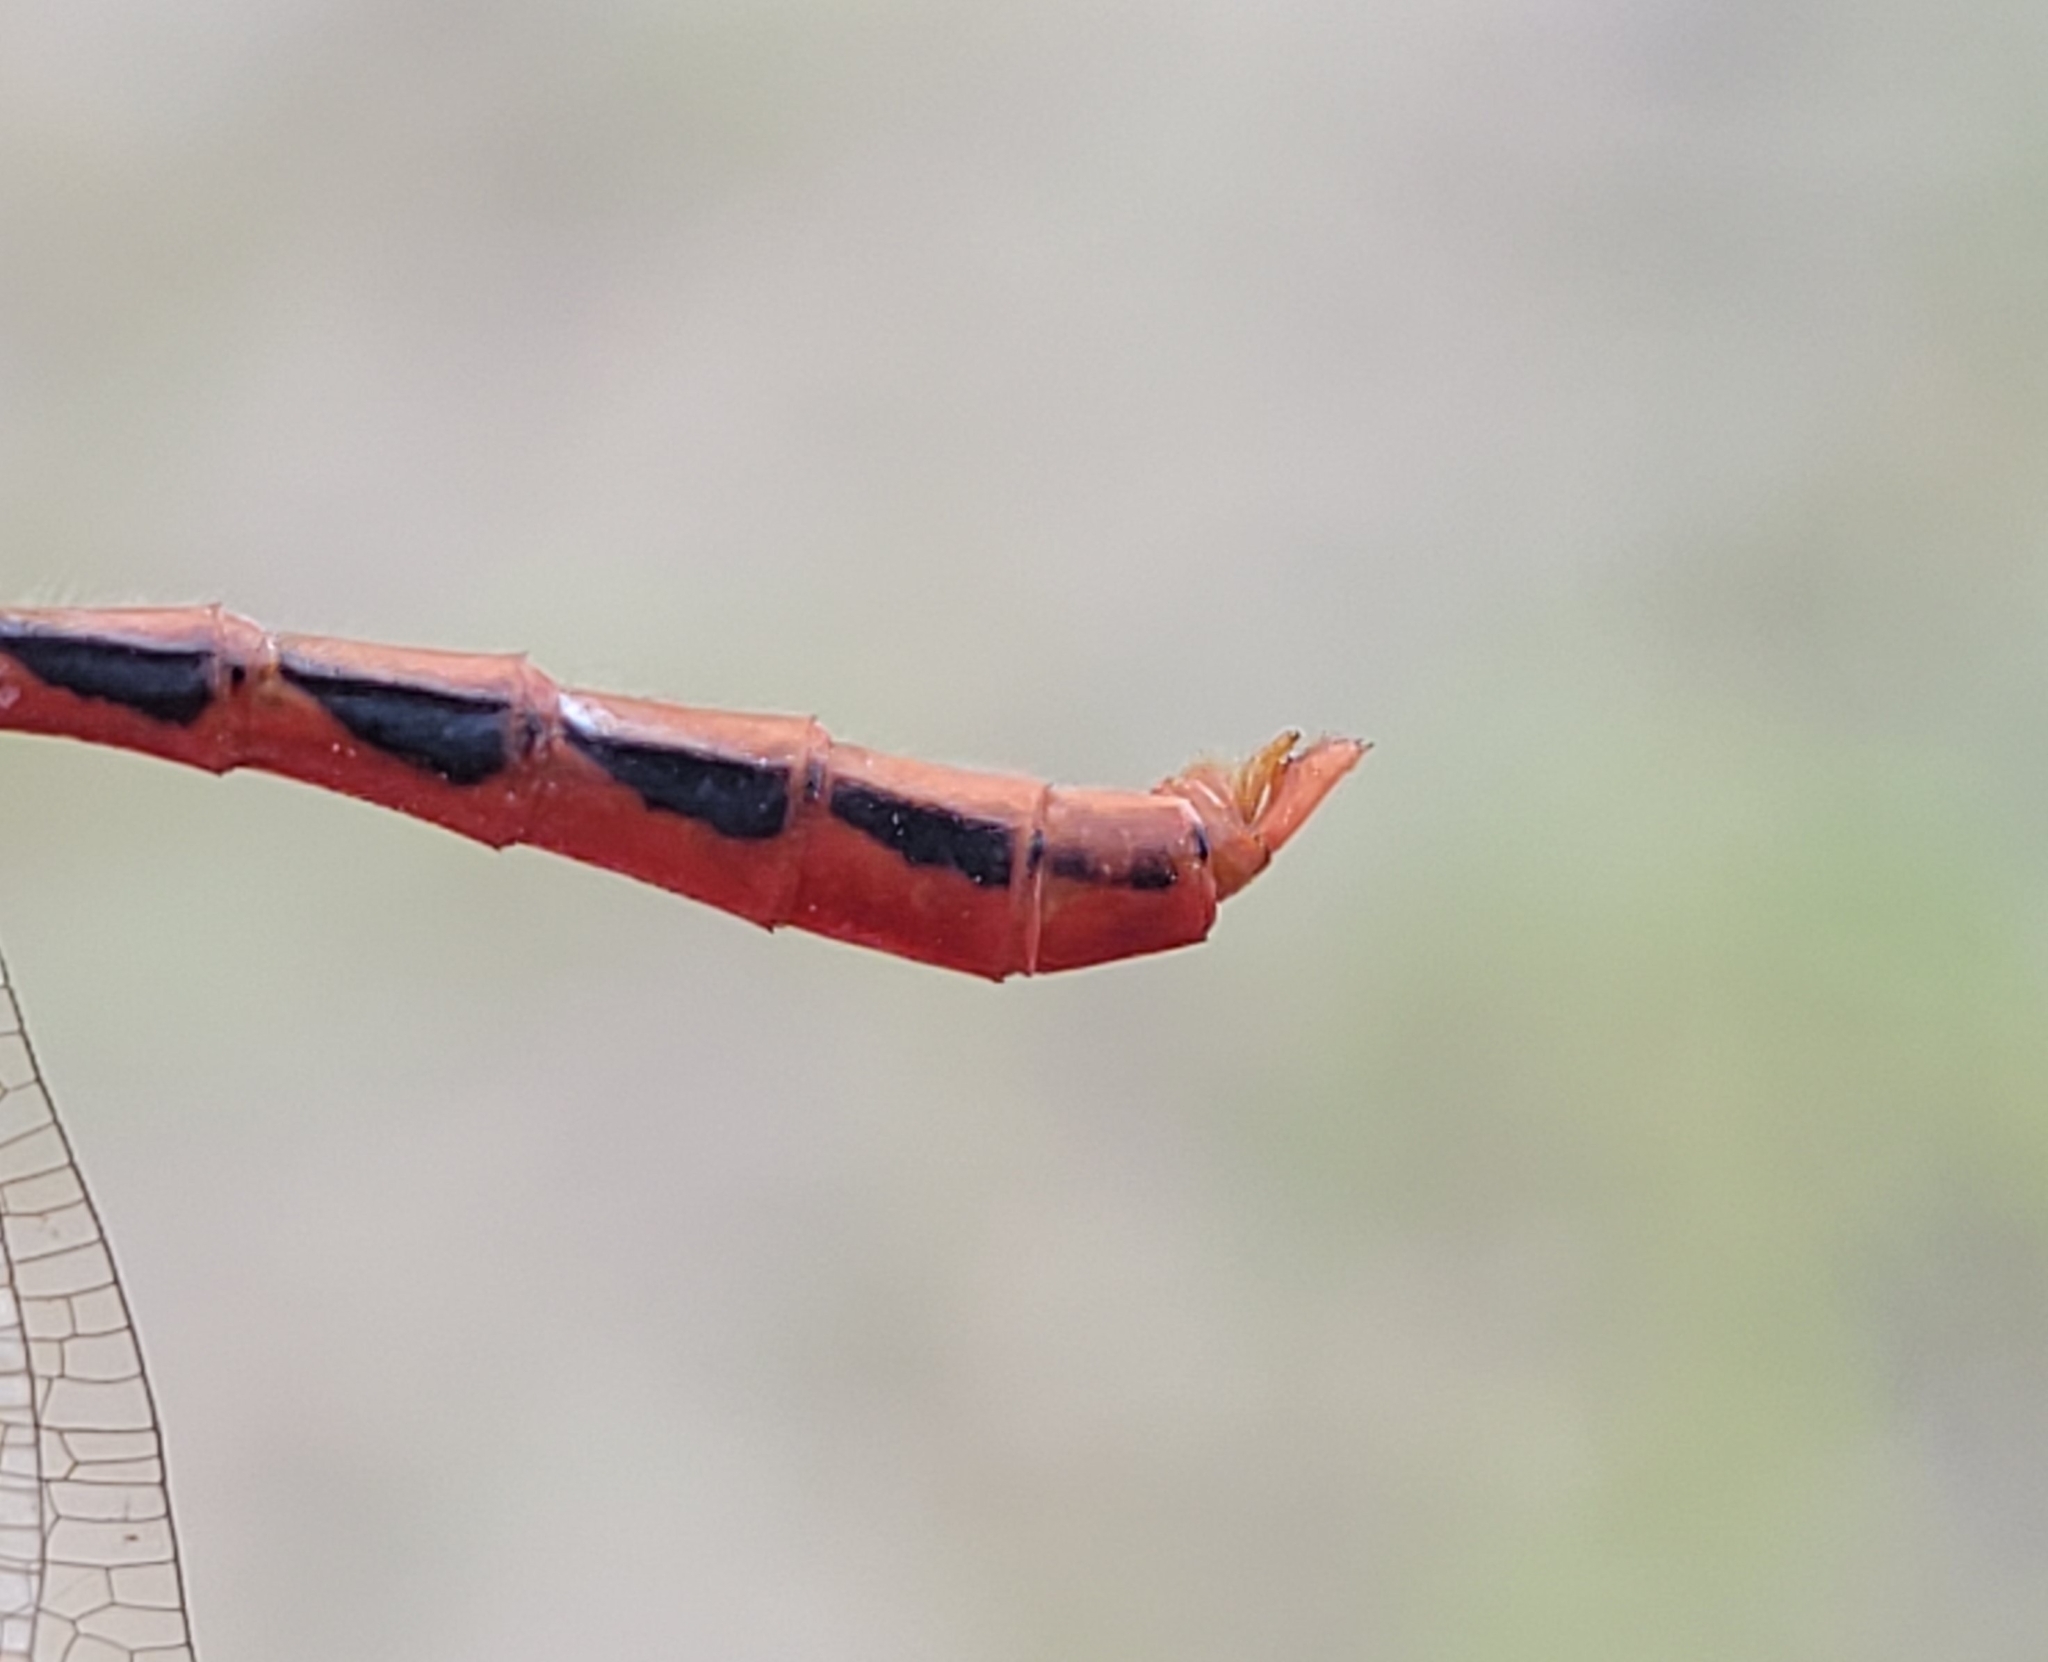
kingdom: Animalia
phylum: Arthropoda
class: Insecta
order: Odonata
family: Libellulidae
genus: Sympetrum
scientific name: Sympetrum internum
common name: Cherry-faced meadowhawk
